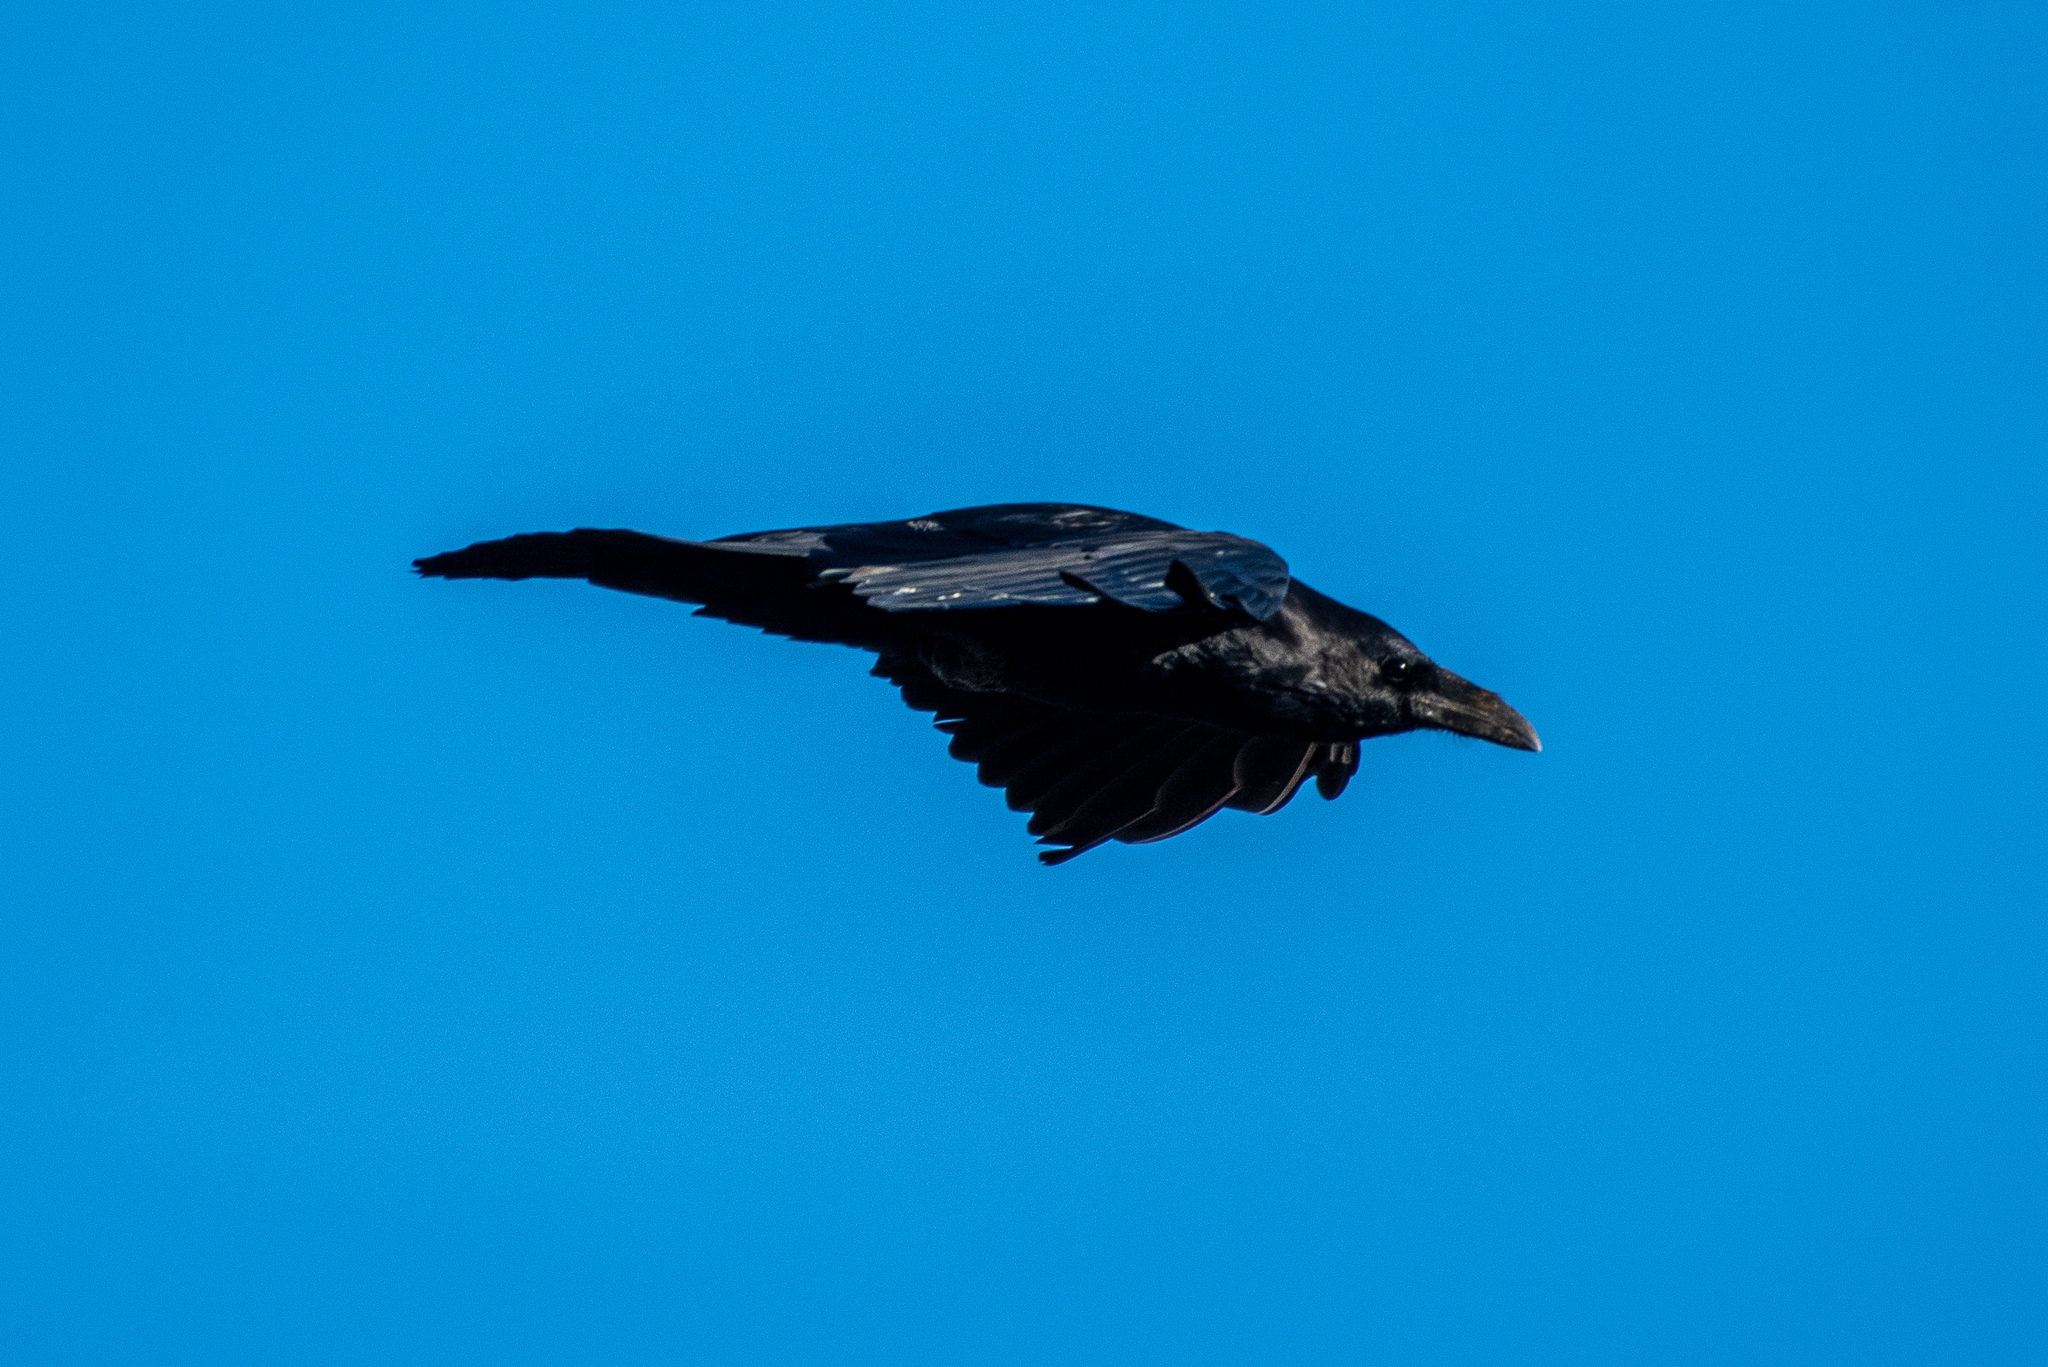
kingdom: Animalia
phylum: Chordata
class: Aves
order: Passeriformes
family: Corvidae
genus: Corvus
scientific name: Corvus corax
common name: Common raven
